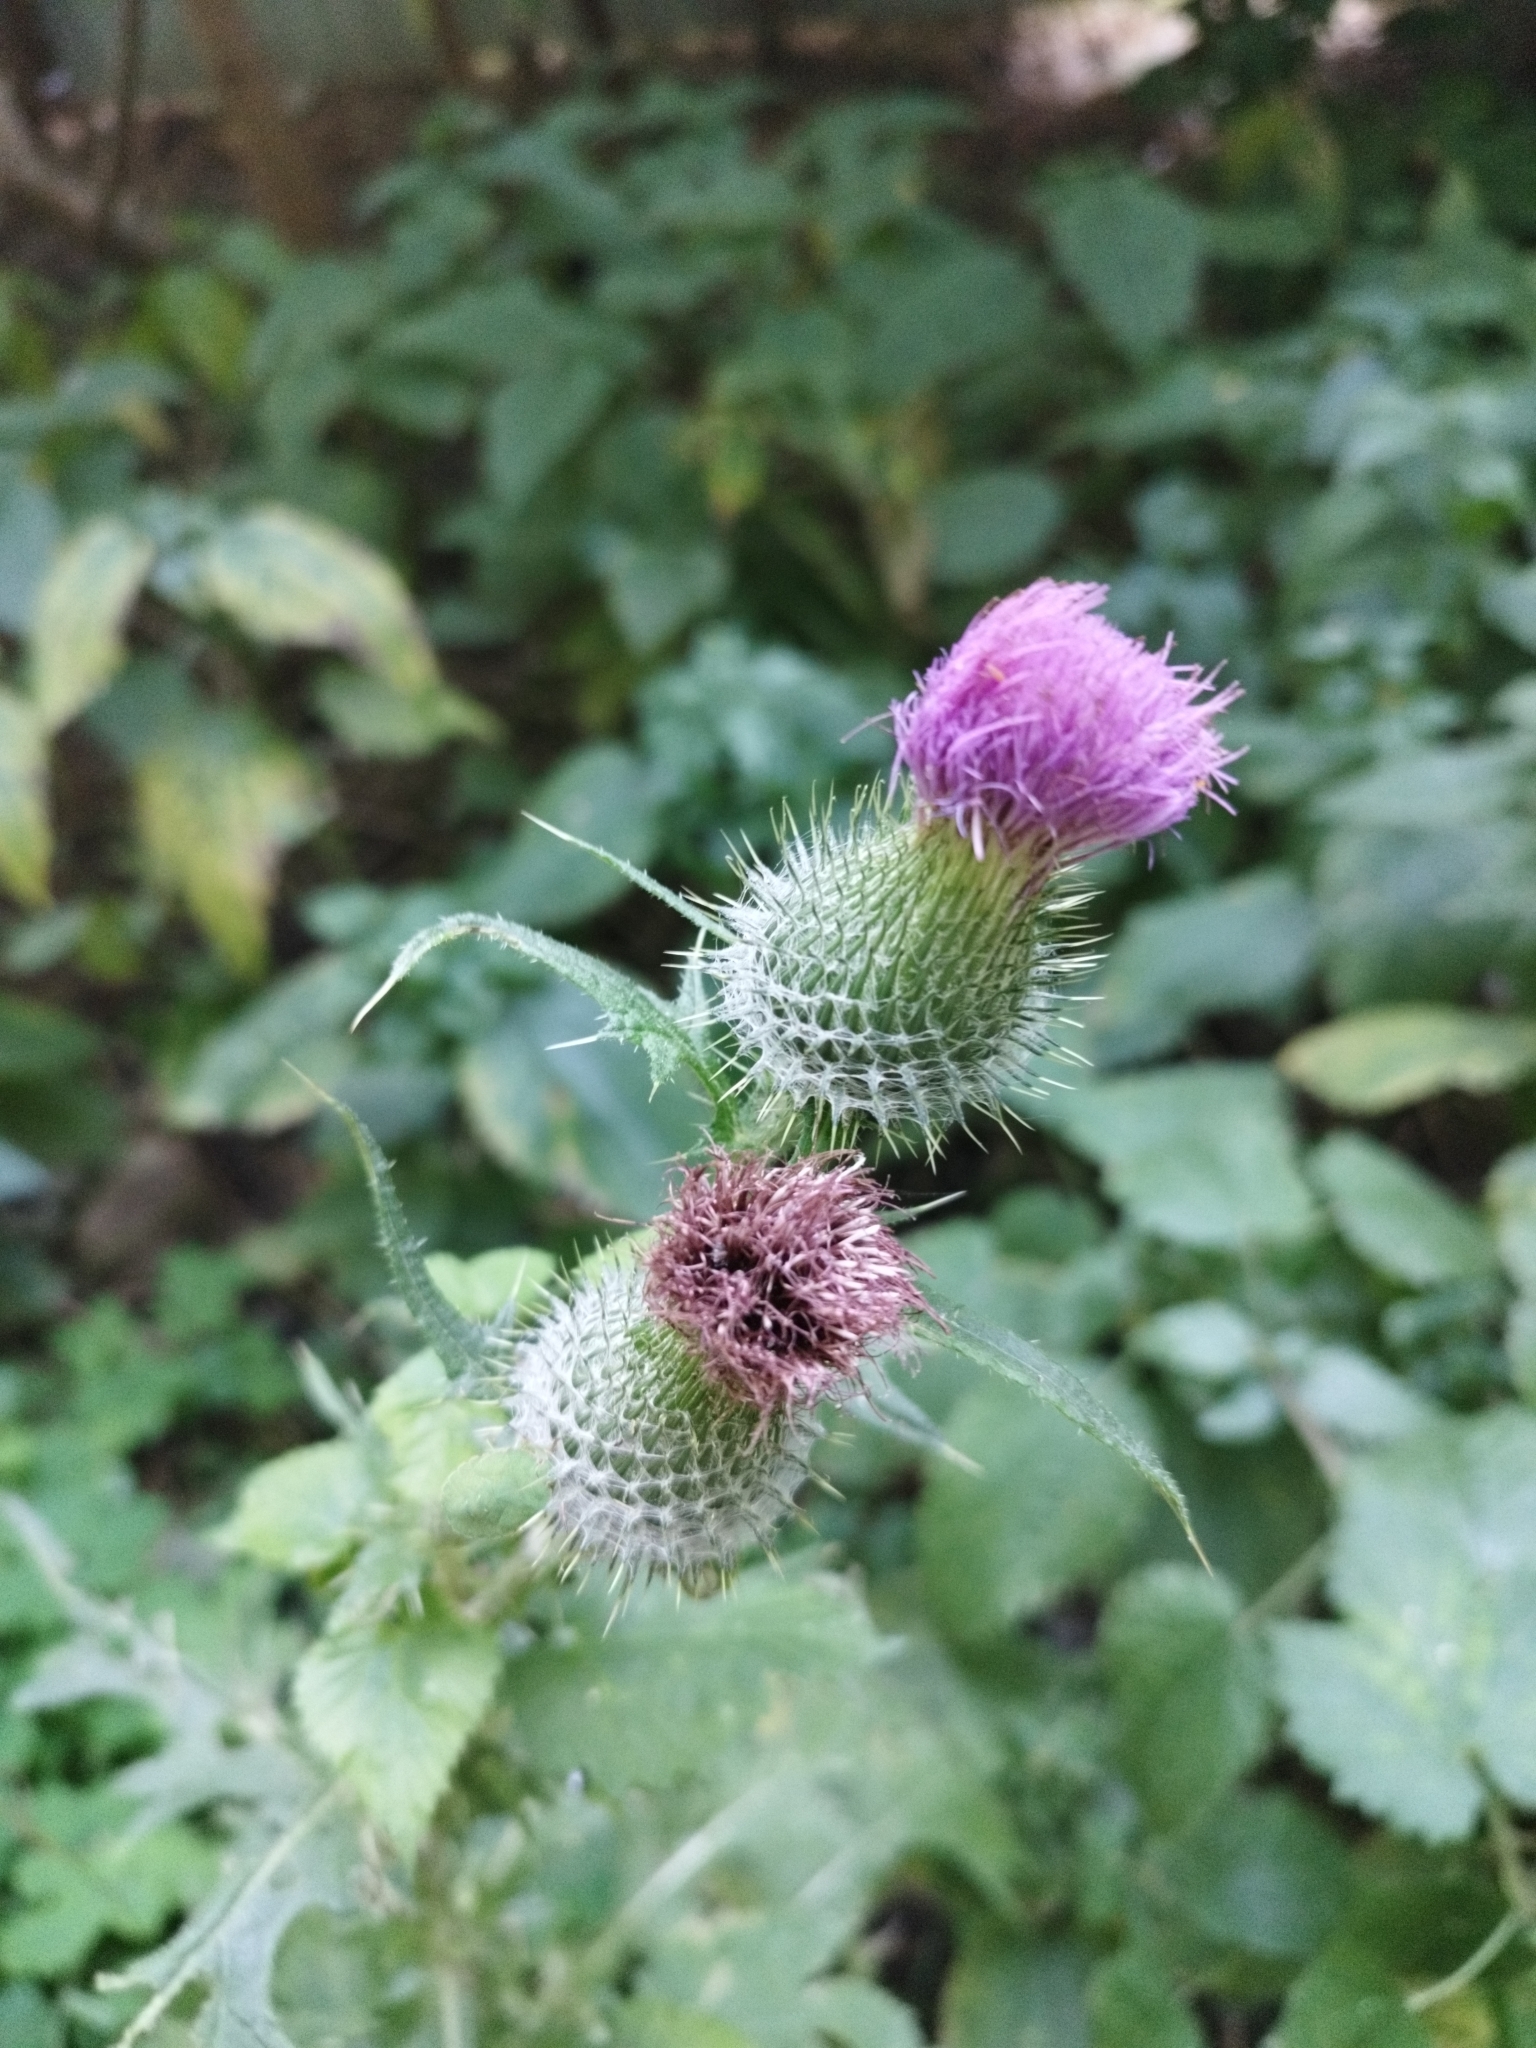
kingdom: Plantae
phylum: Tracheophyta
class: Magnoliopsida
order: Asterales
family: Asteraceae
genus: Cirsium
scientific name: Cirsium vulgare
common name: Bull thistle
